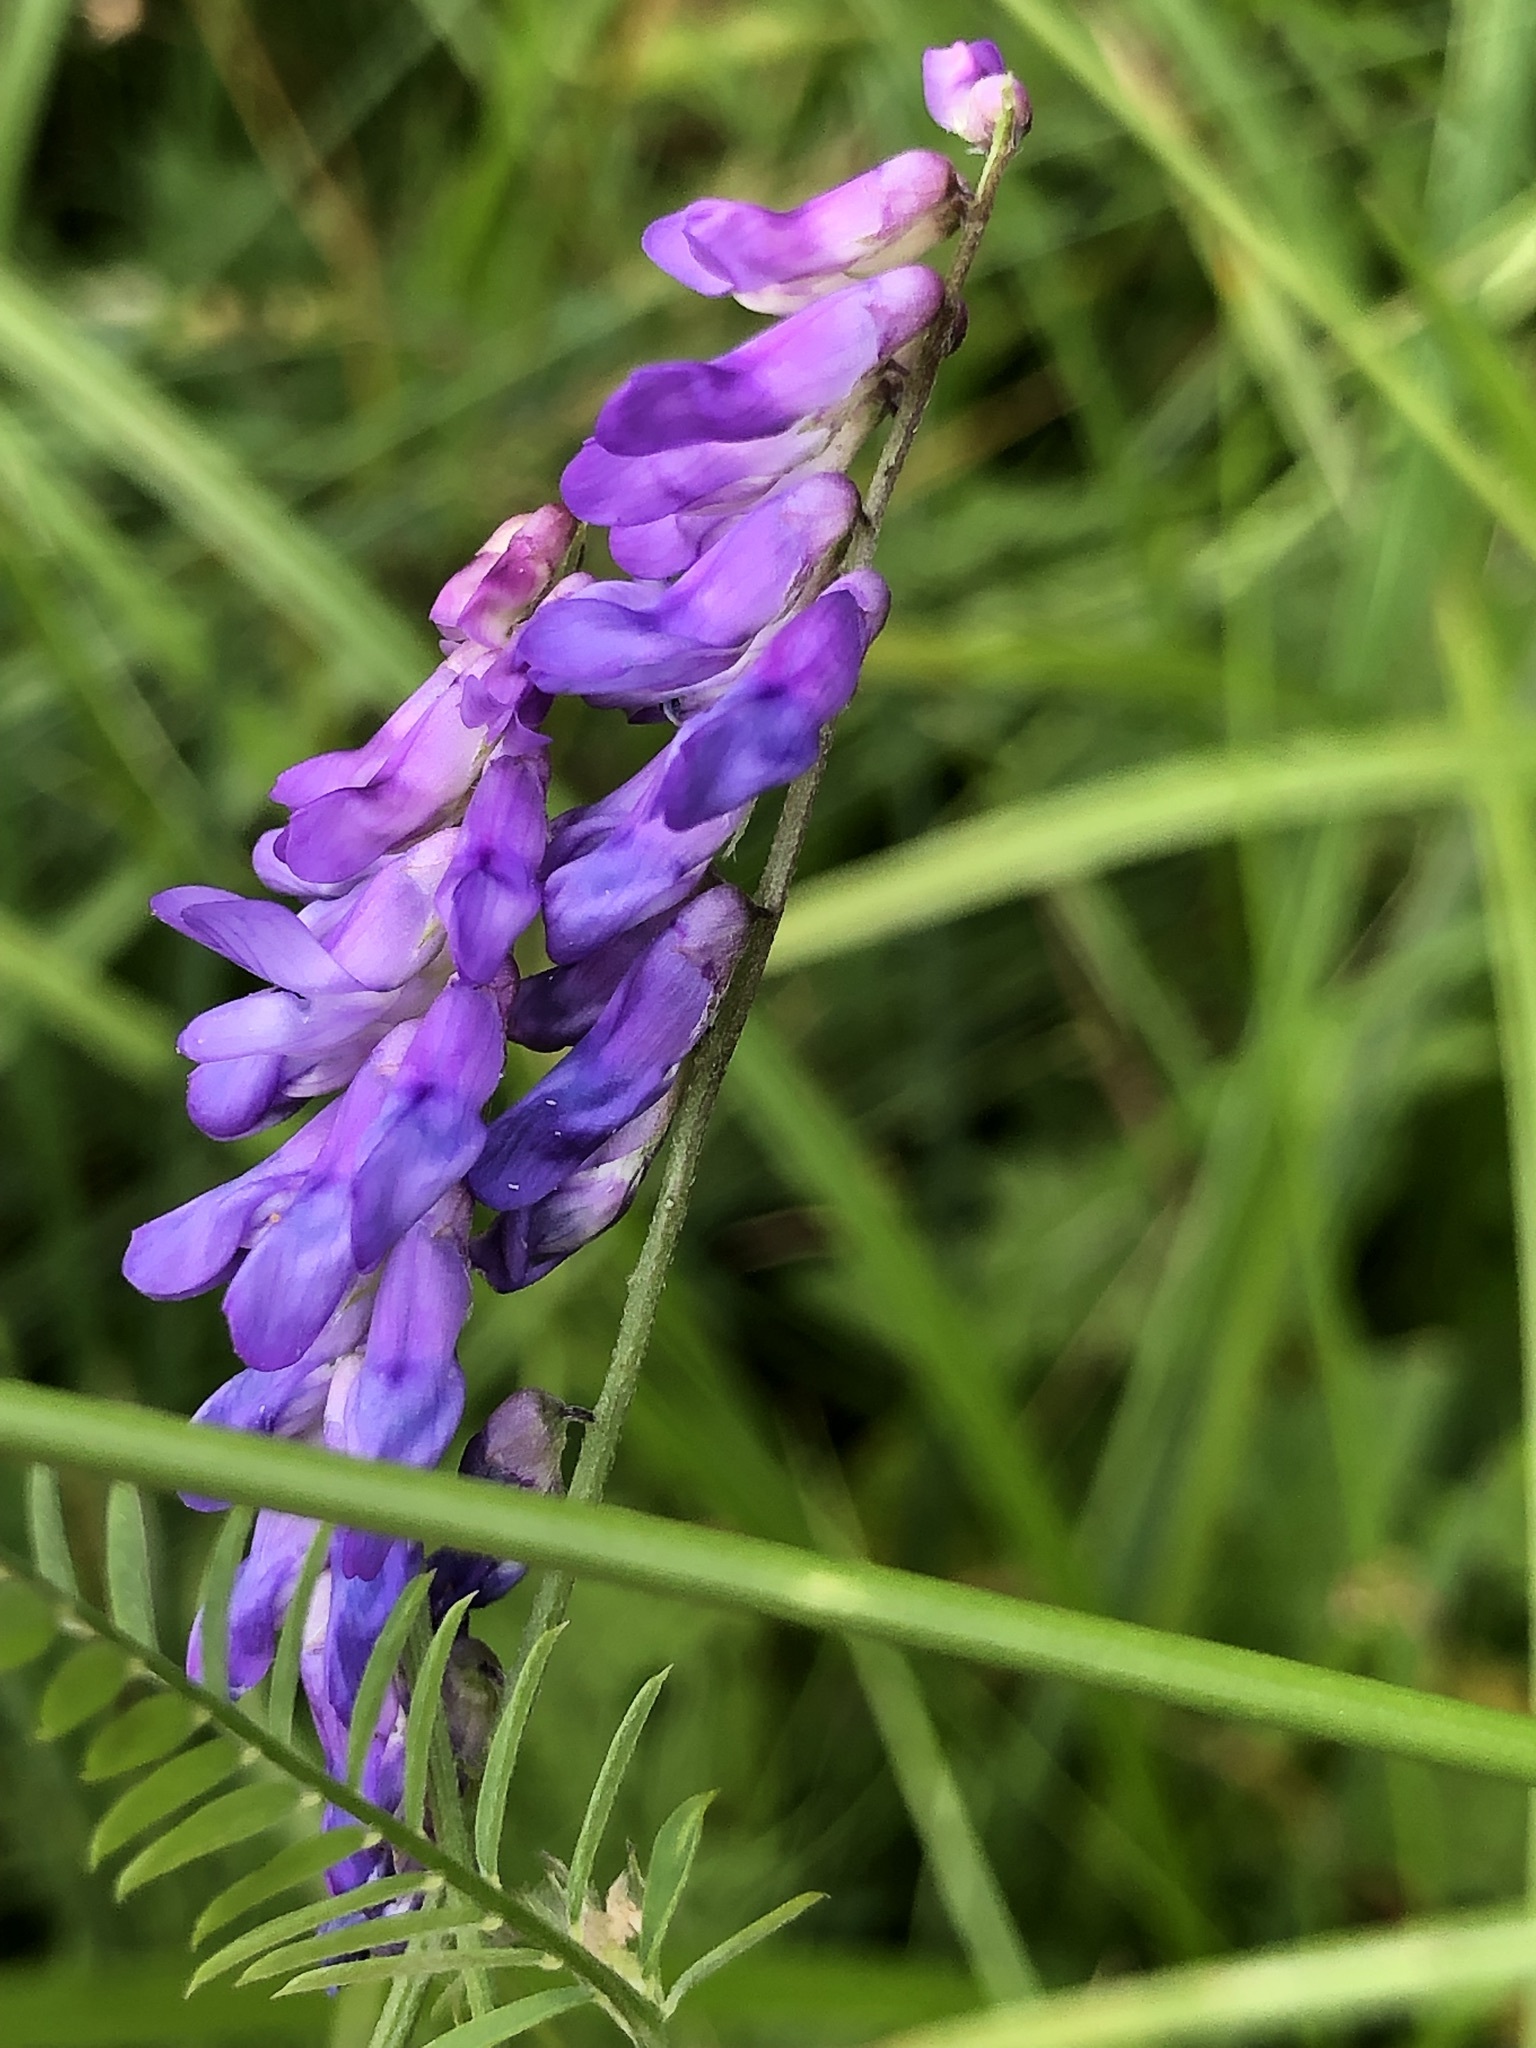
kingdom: Plantae
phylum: Tracheophyta
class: Magnoliopsida
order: Fabales
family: Fabaceae
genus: Vicia
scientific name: Vicia cracca
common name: Bird vetch
